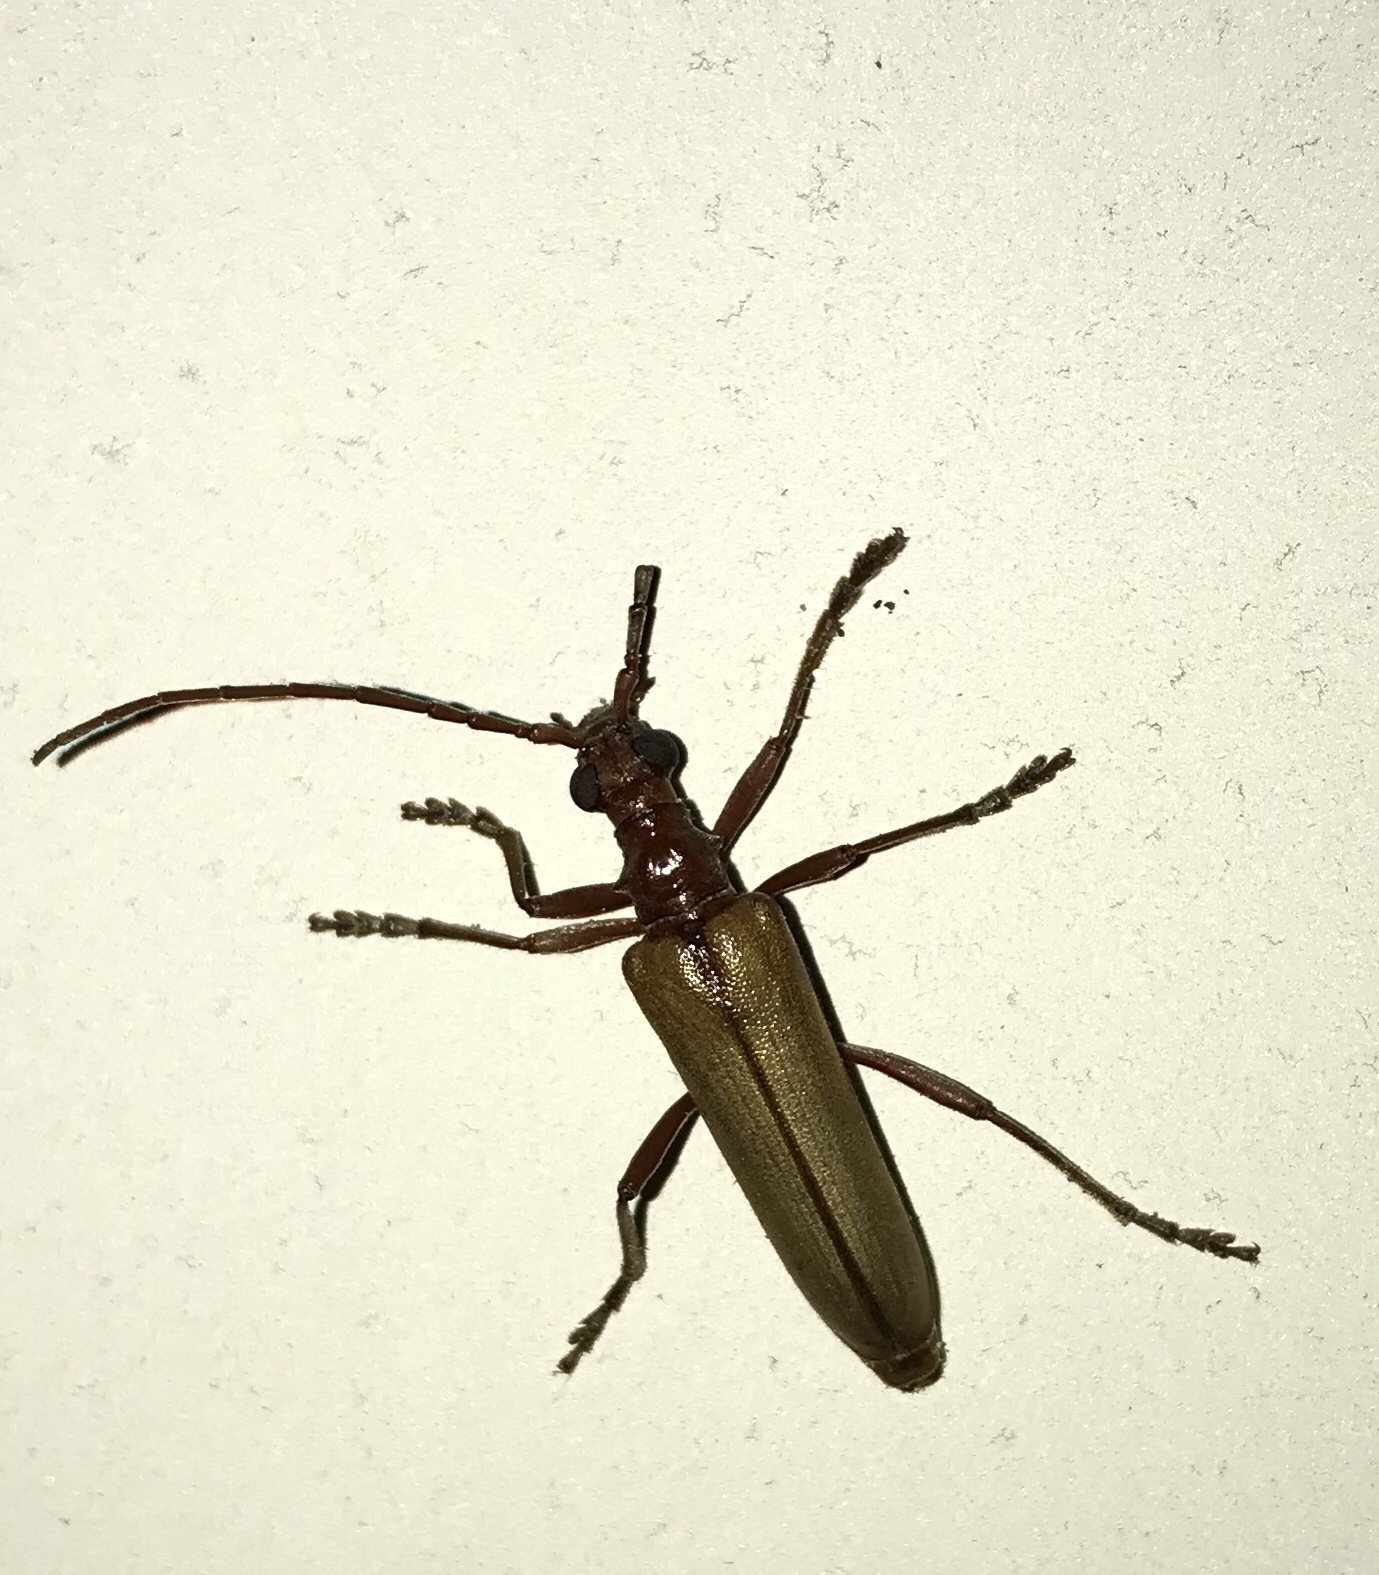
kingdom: Animalia
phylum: Arthropoda
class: Insecta
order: Coleoptera
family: Cerambycidae
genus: Centrodera
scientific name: Centrodera decolorata
